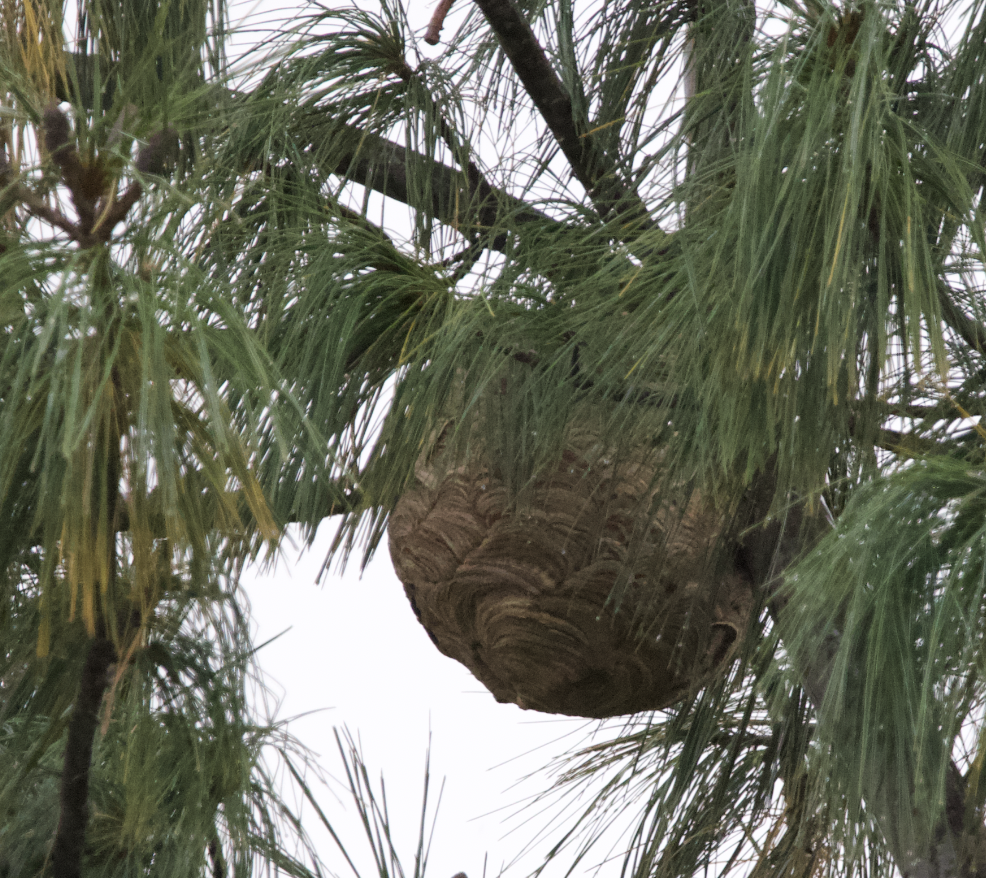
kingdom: Animalia
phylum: Arthropoda
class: Insecta
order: Hymenoptera
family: Vespidae
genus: Vespa
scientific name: Vespa velutina
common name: Asian hornet
